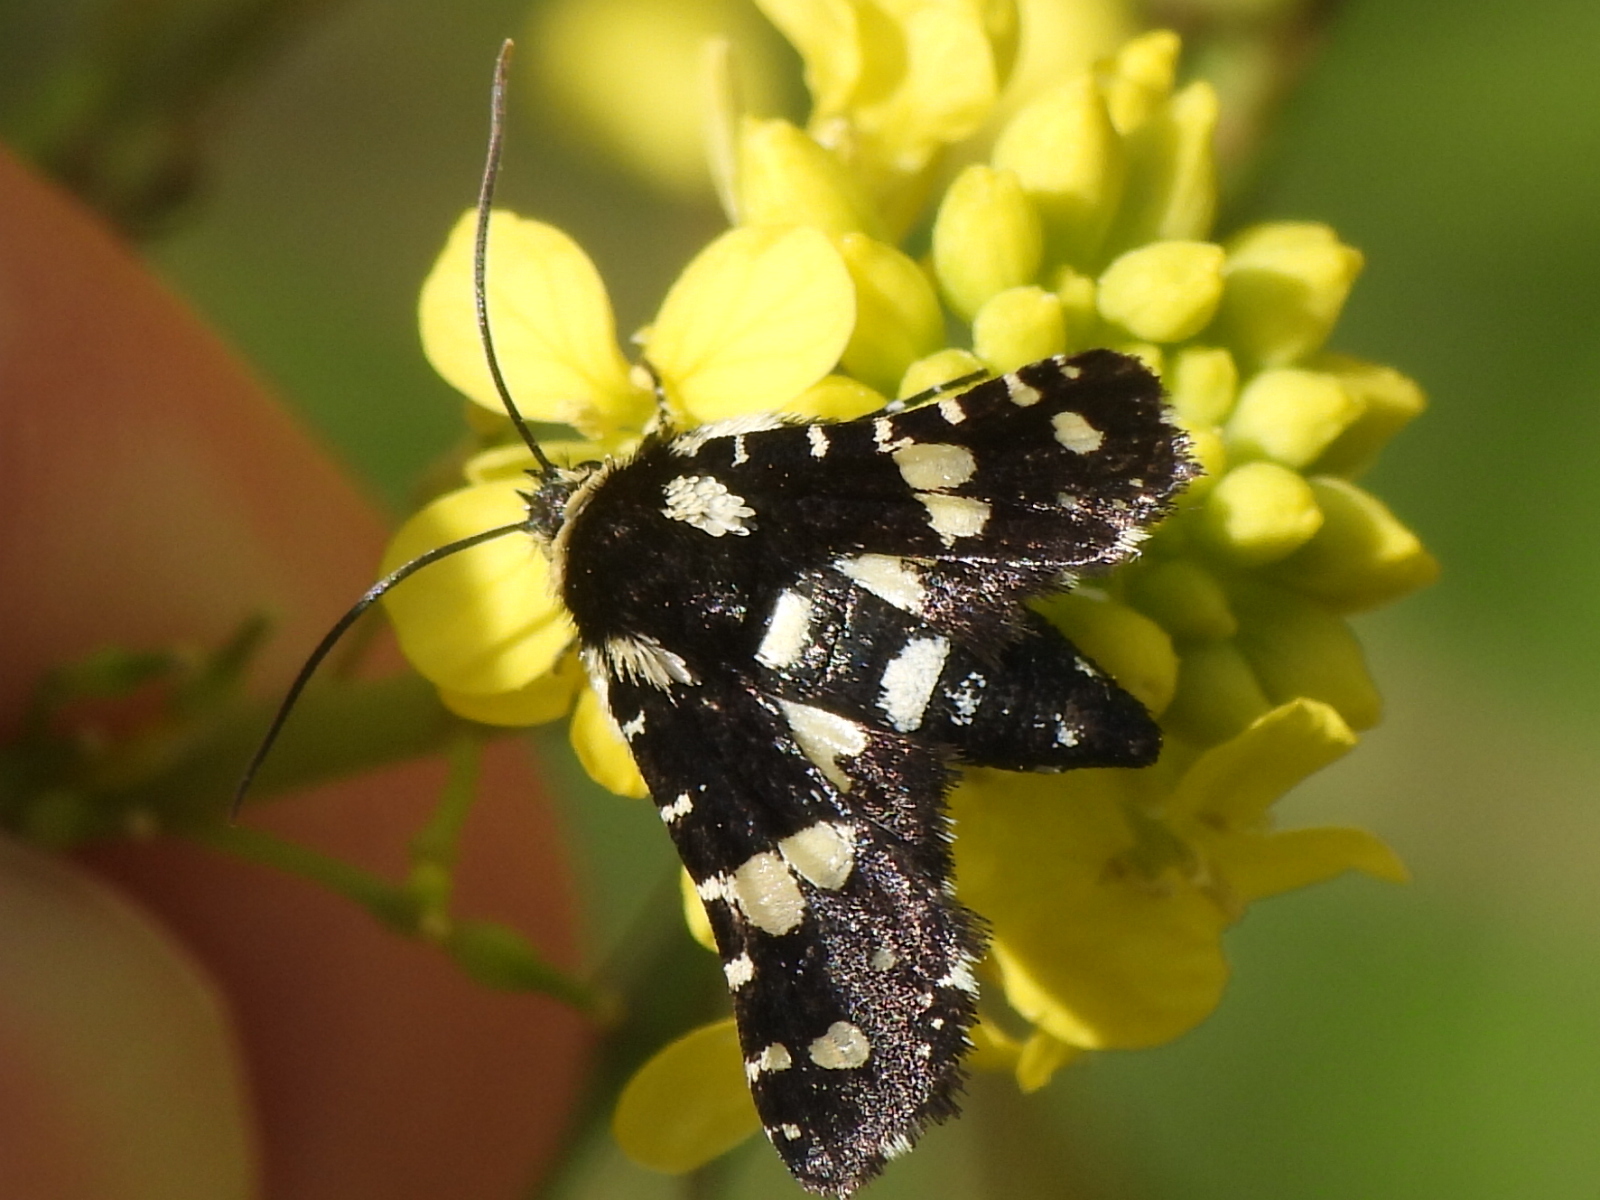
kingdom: Animalia
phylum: Arthropoda
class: Insecta
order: Lepidoptera
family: Thyrididae
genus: Pseudothyris
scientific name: Pseudothyris sepulchralis
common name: Mournful thyris moth
